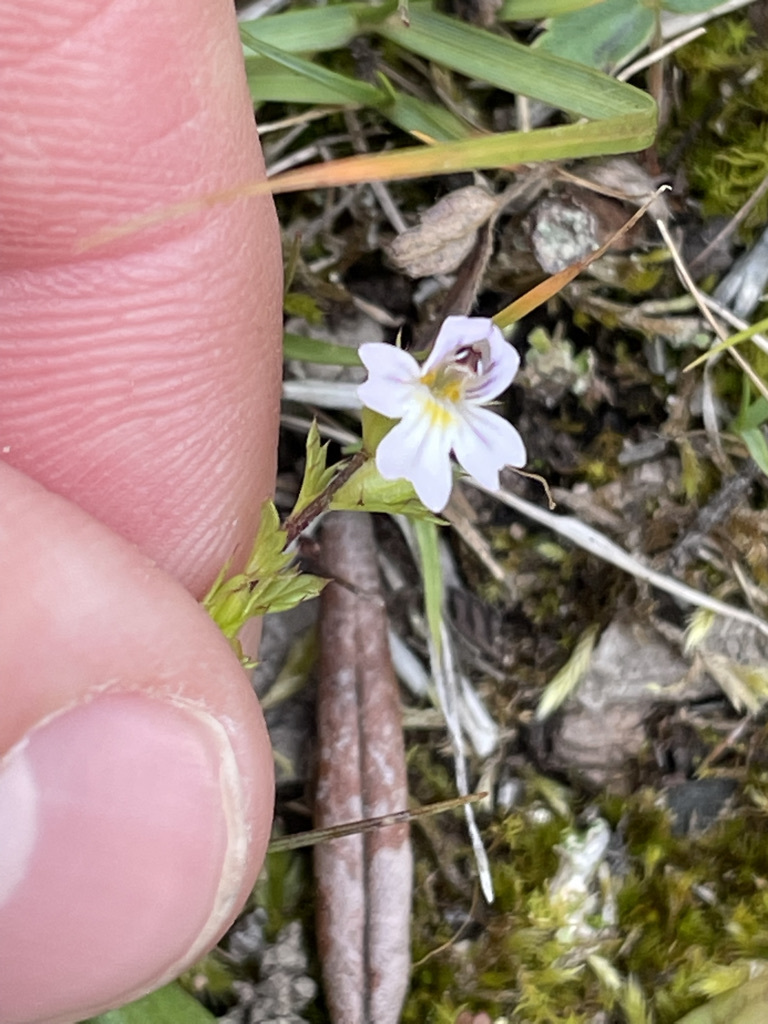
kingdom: Plantae
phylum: Tracheophyta
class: Magnoliopsida
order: Lamiales
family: Orobanchaceae
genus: Euphrasia
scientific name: Euphrasia nemorosa
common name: Common eyebright
